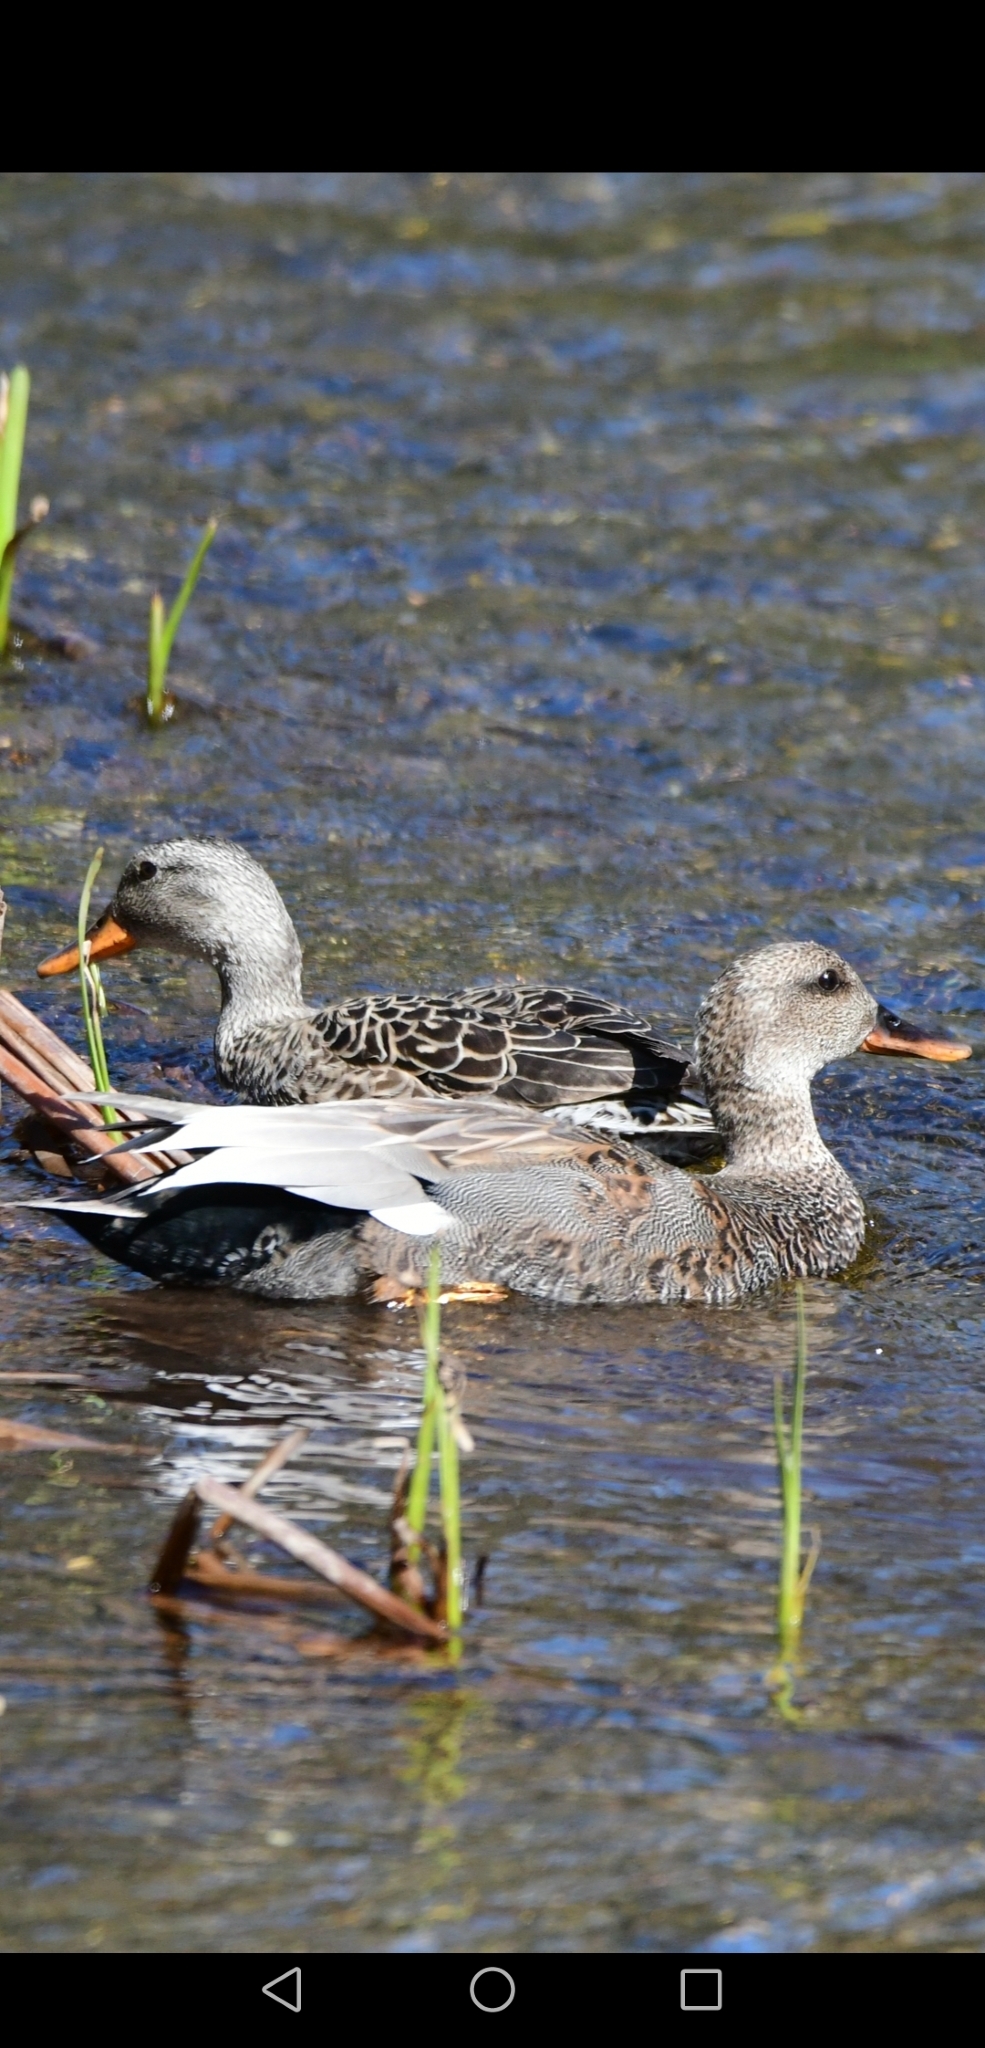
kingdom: Animalia
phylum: Chordata
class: Aves
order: Anseriformes
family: Anatidae
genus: Mareca
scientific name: Mareca strepera
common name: Gadwall
